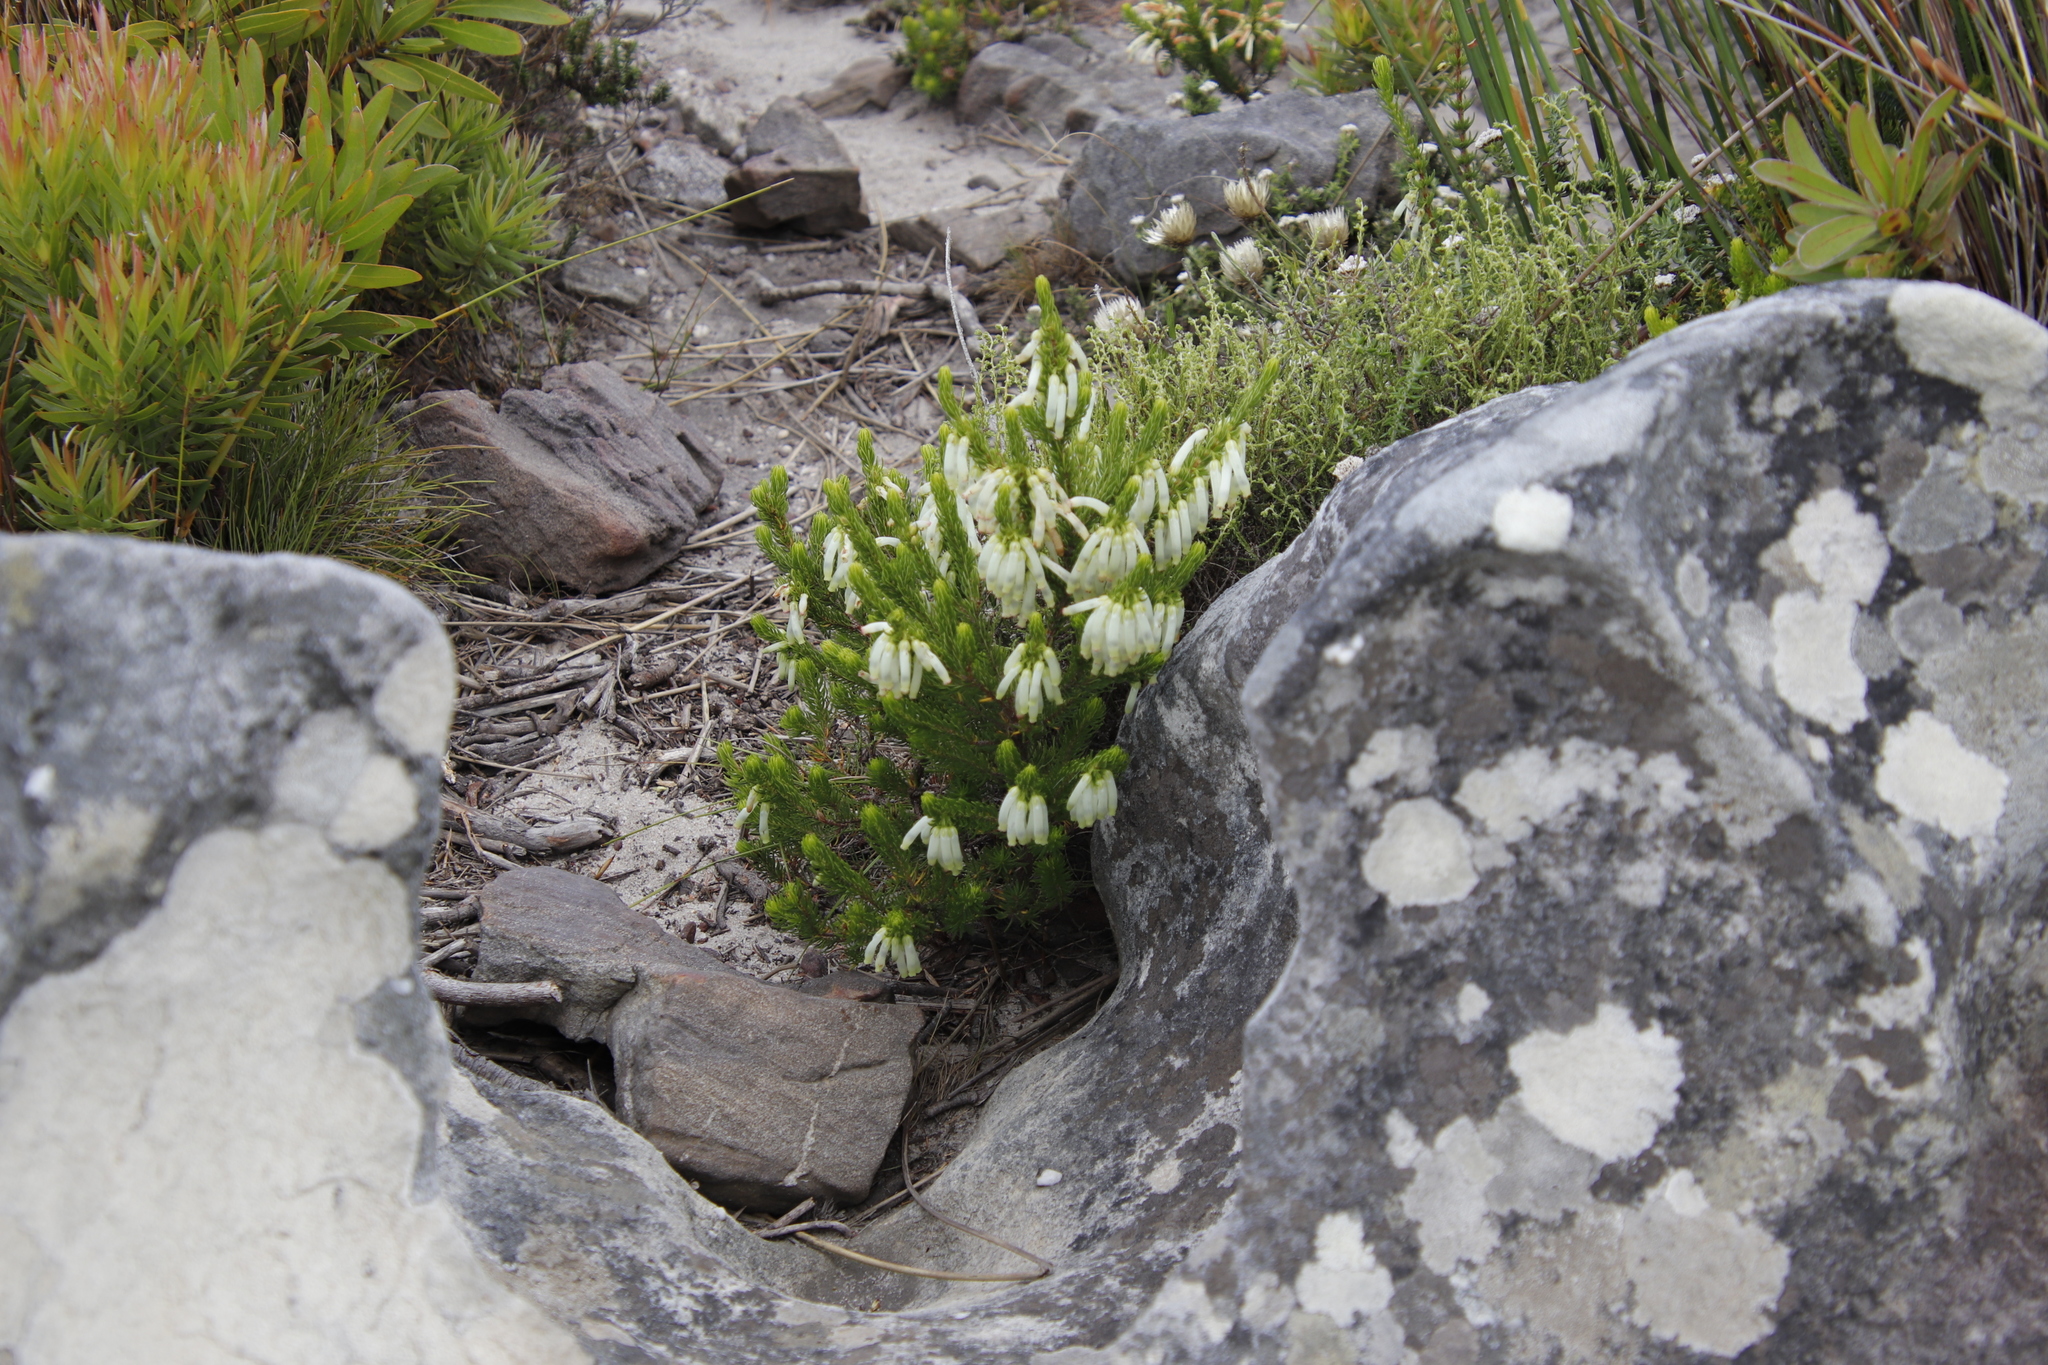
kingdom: Plantae
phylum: Tracheophyta
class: Magnoliopsida
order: Ericales
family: Ericaceae
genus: Erica
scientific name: Erica mammosa
